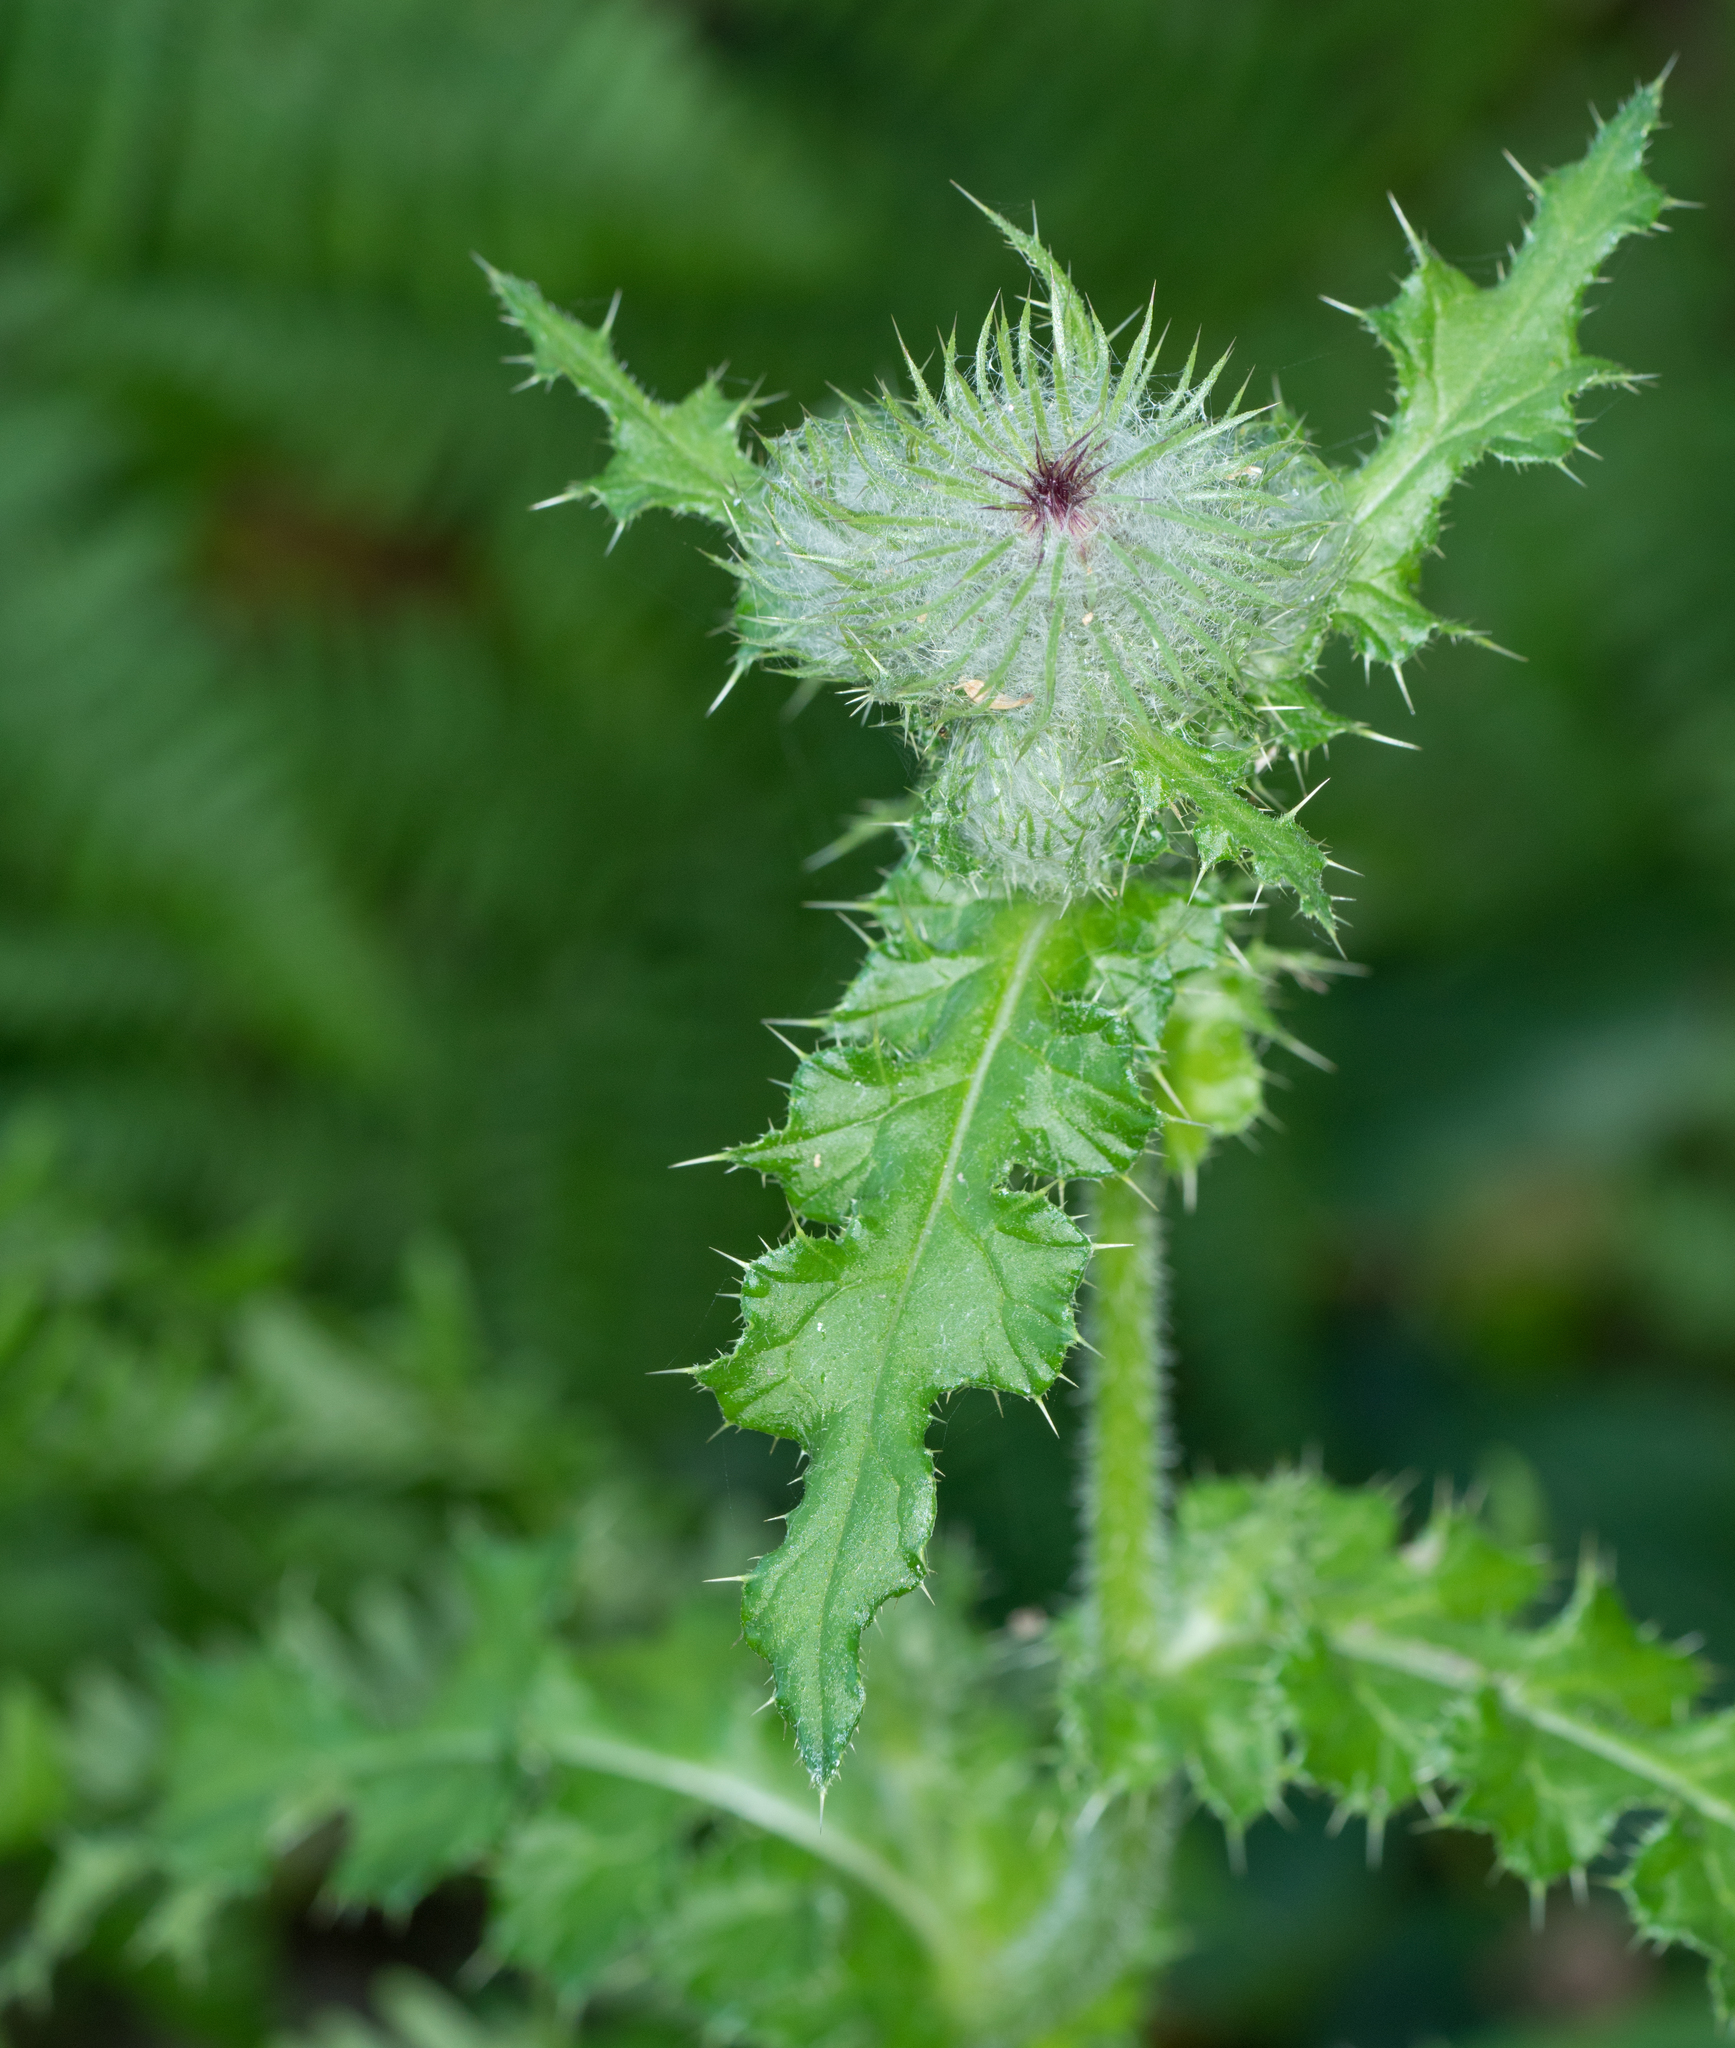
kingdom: Plantae
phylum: Tracheophyta
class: Magnoliopsida
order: Asterales
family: Asteraceae
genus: Cirsium
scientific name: Cirsium edule
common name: Indian thistle
